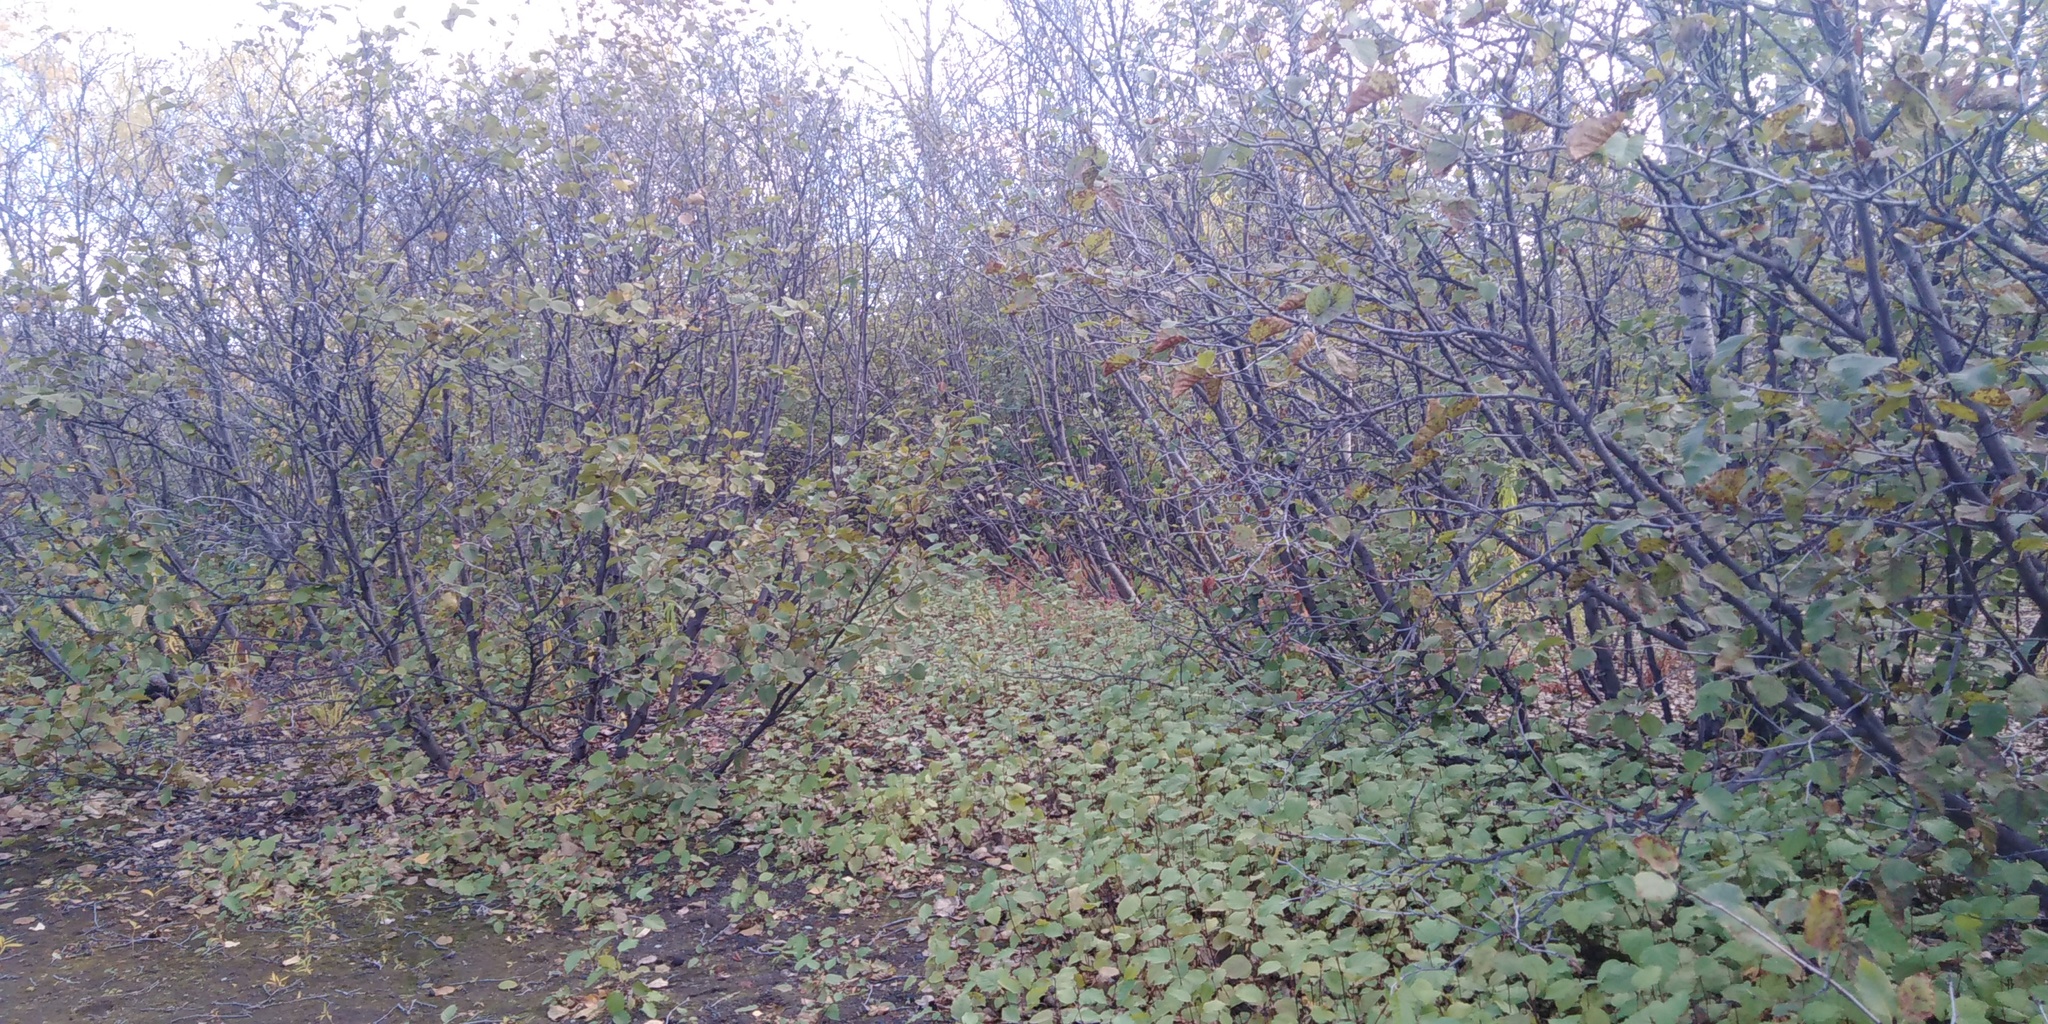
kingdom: Plantae
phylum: Tracheophyta
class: Magnoliopsida
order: Fagales
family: Betulaceae
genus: Alnus
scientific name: Alnus alnobetula
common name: Green alder
